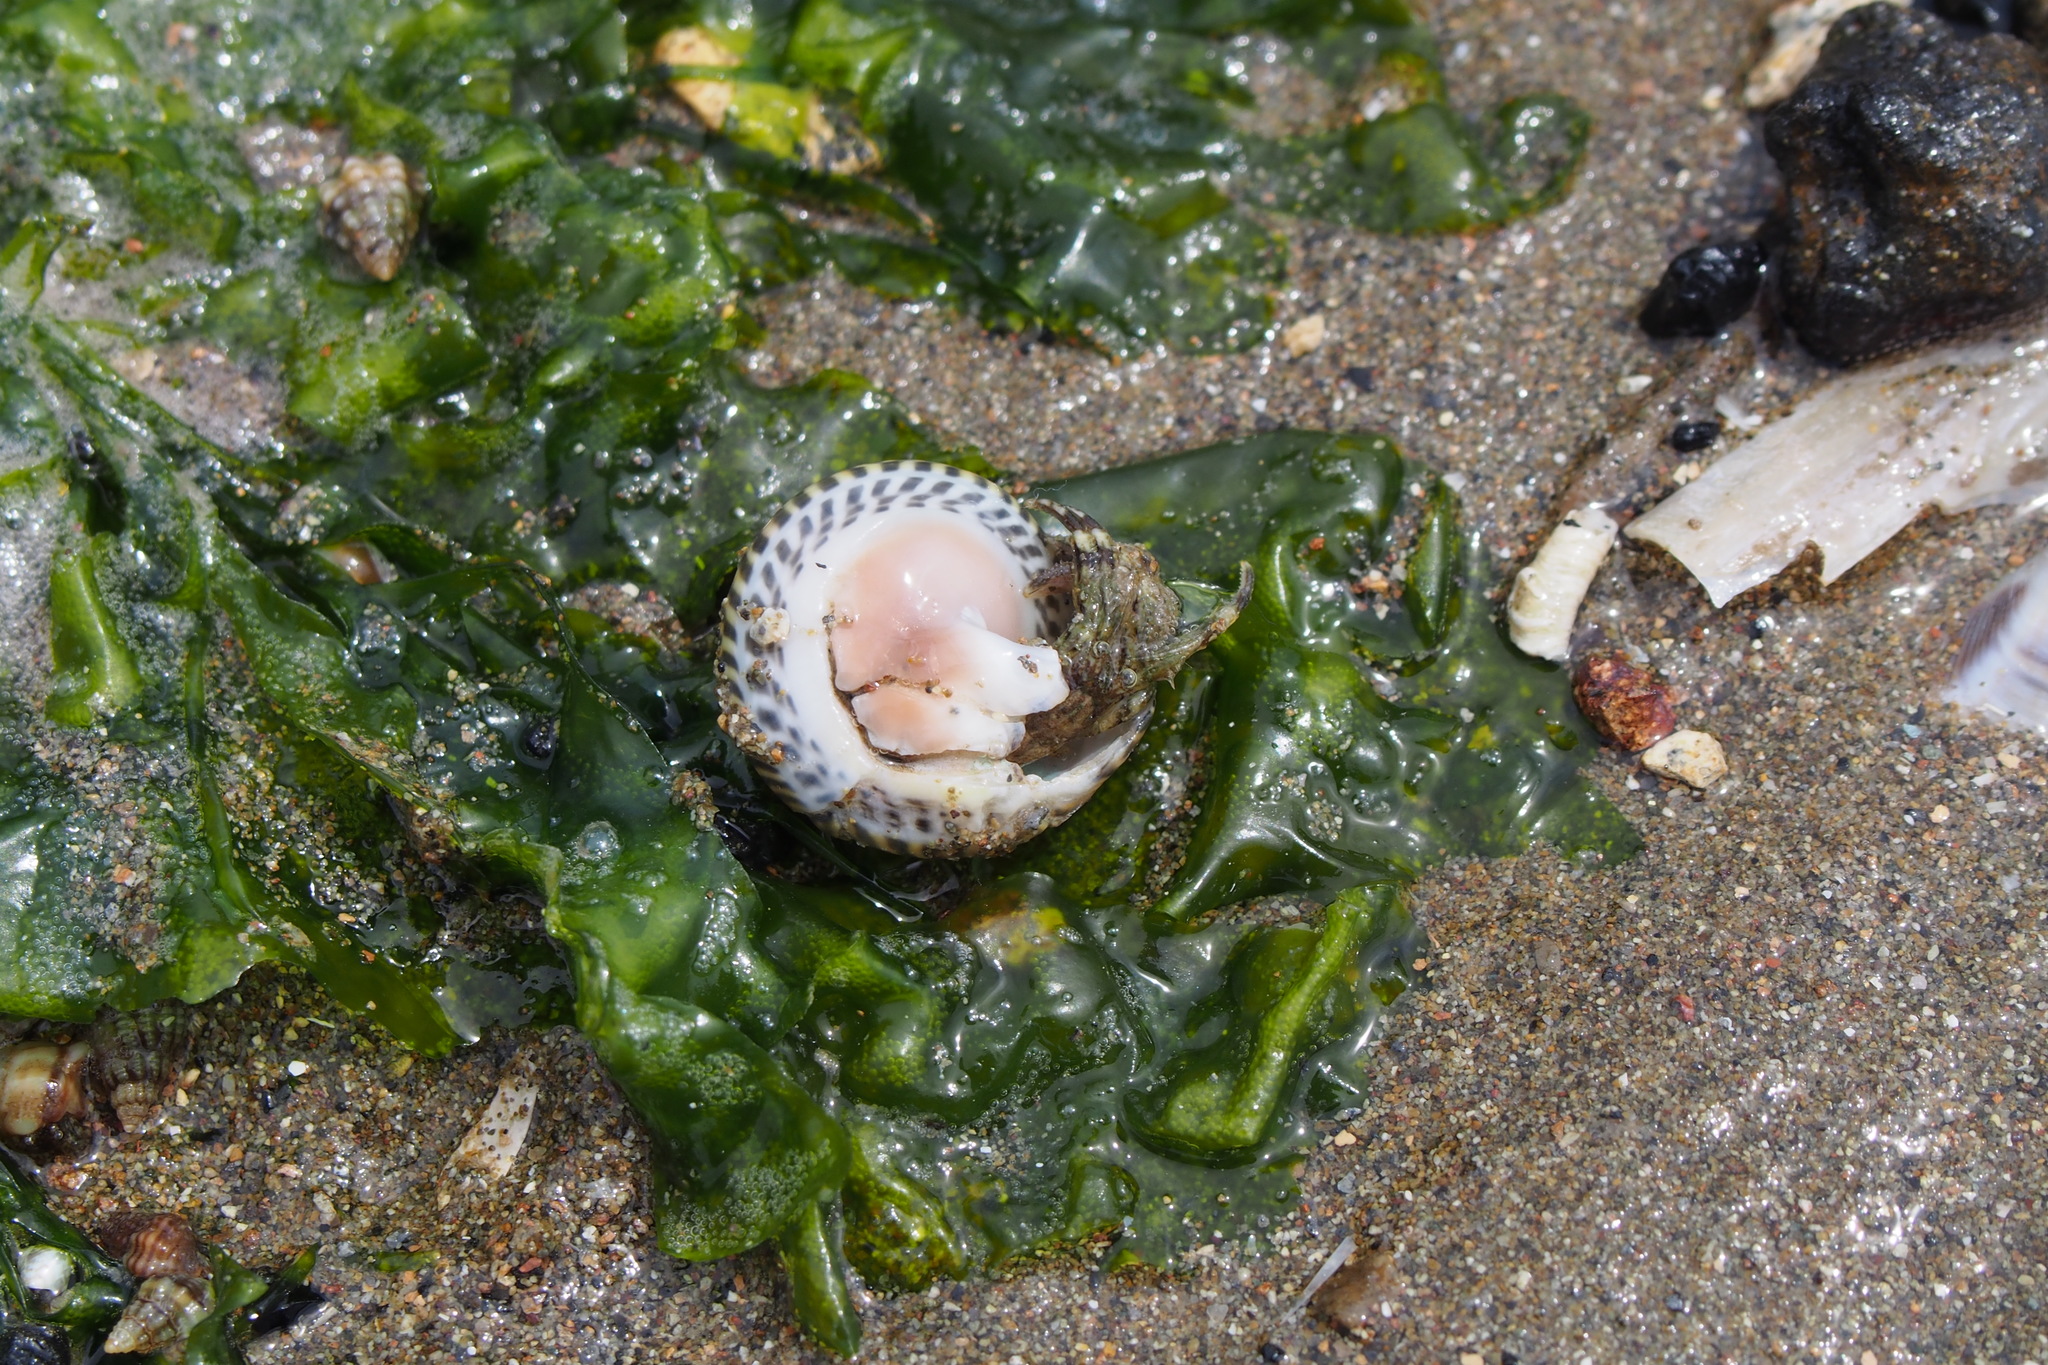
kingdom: Animalia
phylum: Mollusca
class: Gastropoda
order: Trochida
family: Trochidae
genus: Umbonium
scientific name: Umbonium costatum
